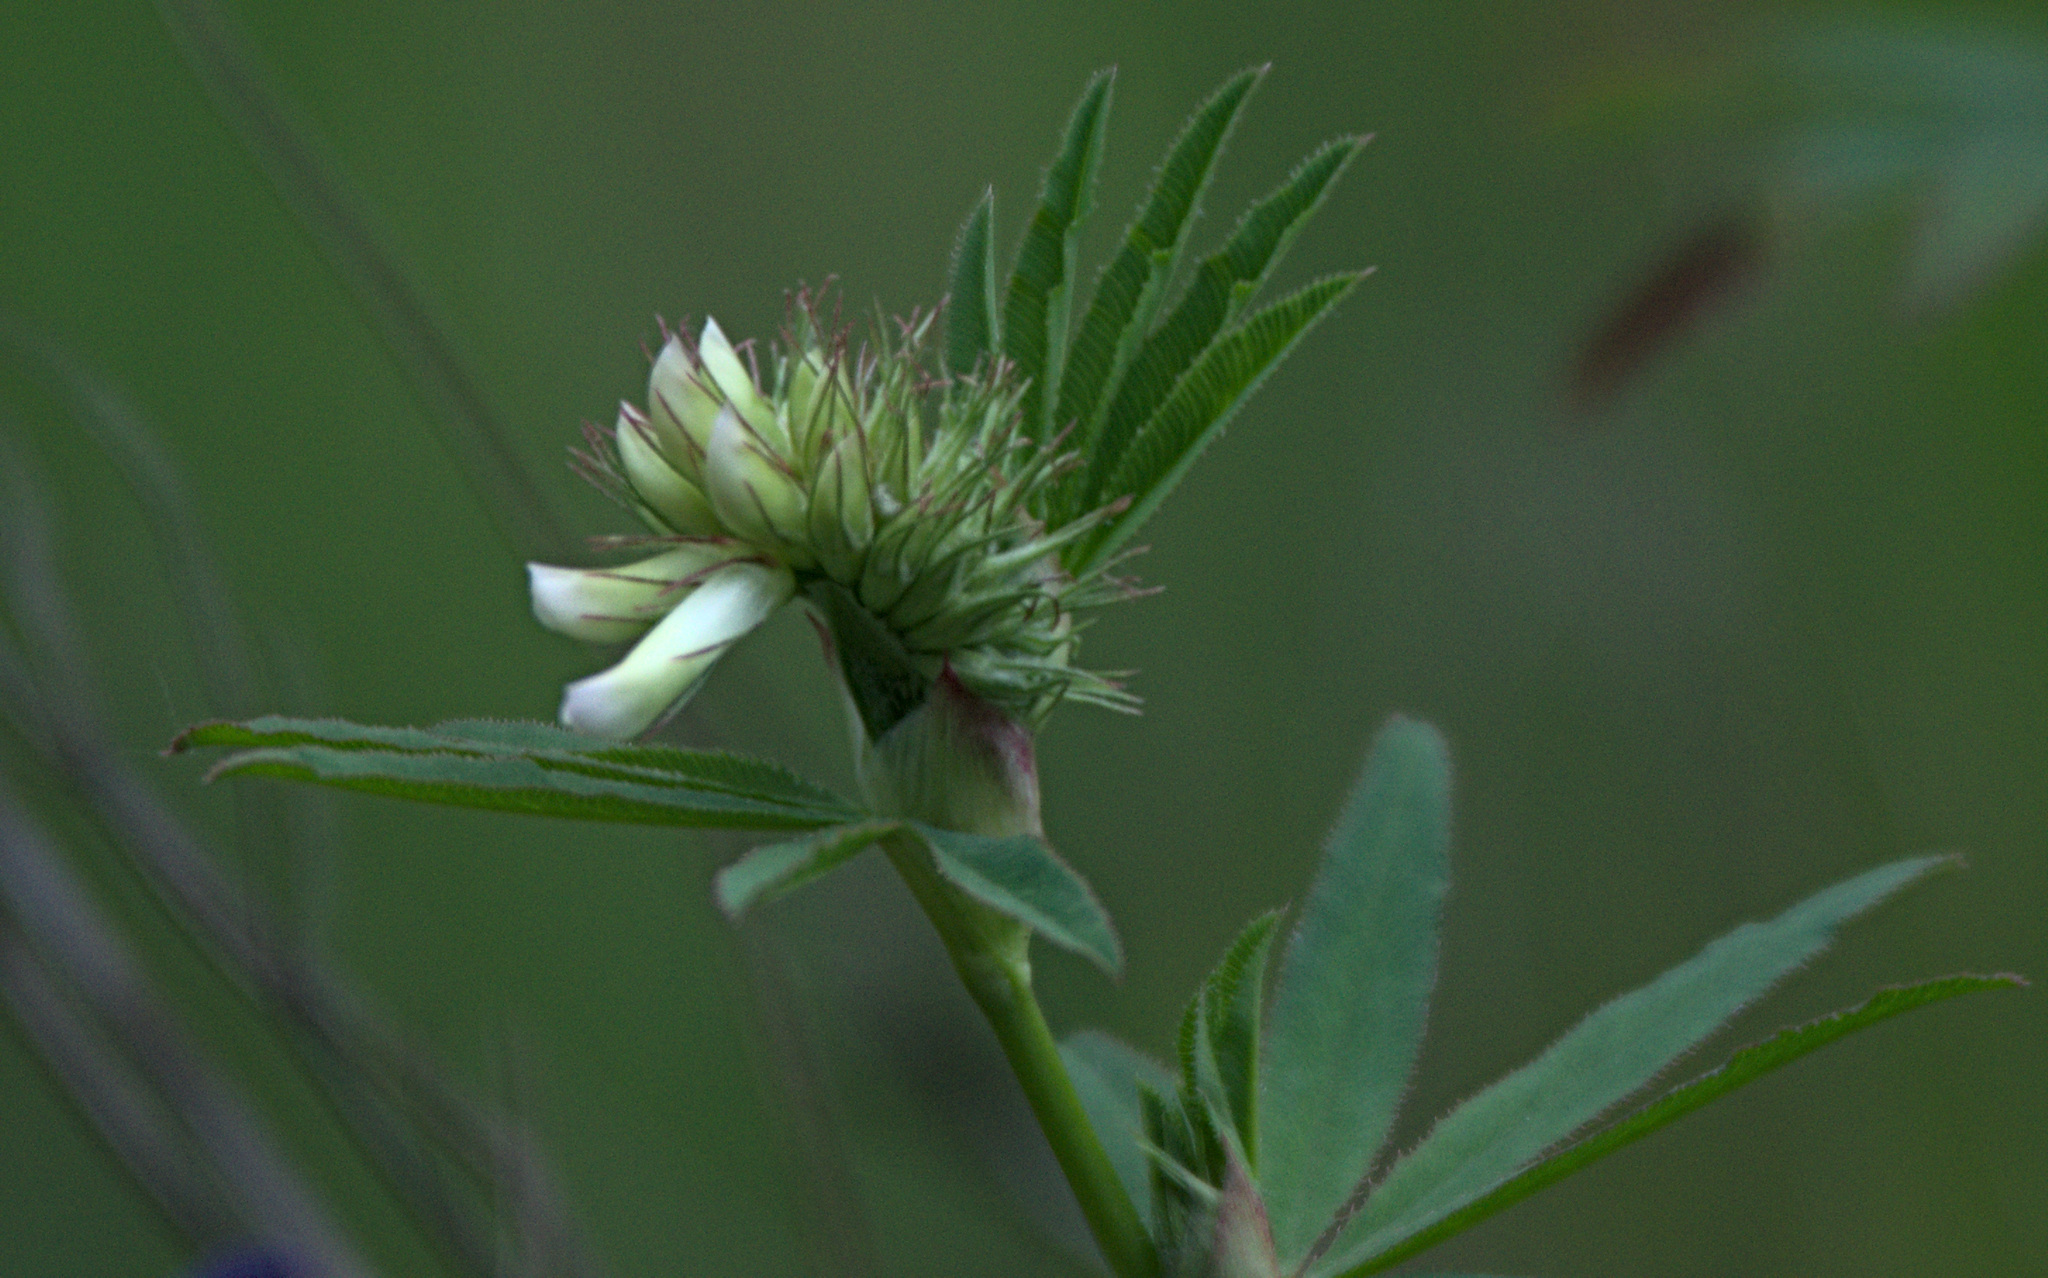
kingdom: Plantae
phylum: Tracheophyta
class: Magnoliopsida
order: Fabales
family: Fabaceae
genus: Trifolium
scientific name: Trifolium lupinaster
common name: Lupine clover
